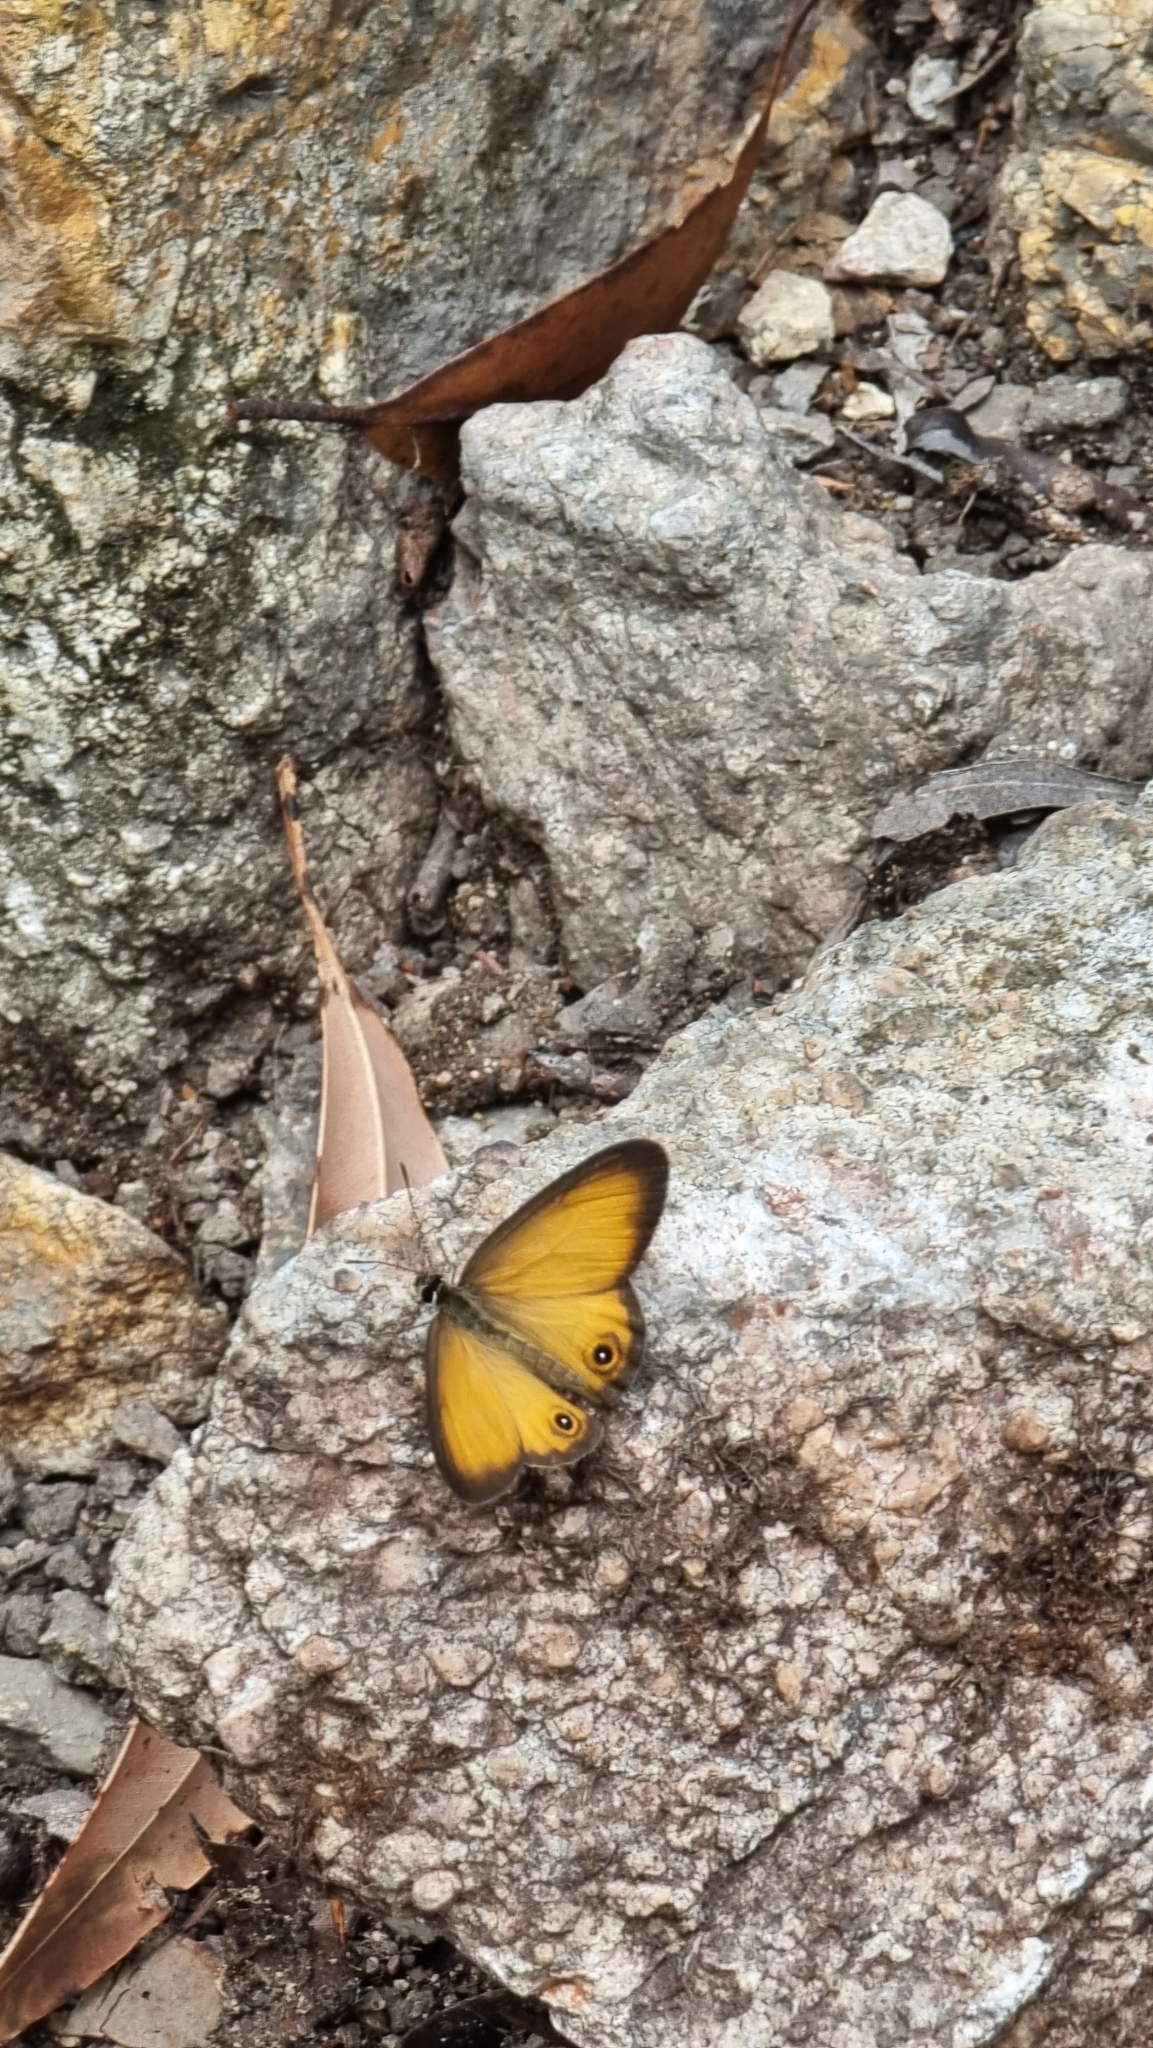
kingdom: Animalia
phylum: Arthropoda
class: Insecta
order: Lepidoptera
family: Nymphalidae
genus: Hypocysta
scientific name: Hypocysta adiante
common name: Orange ringlet
